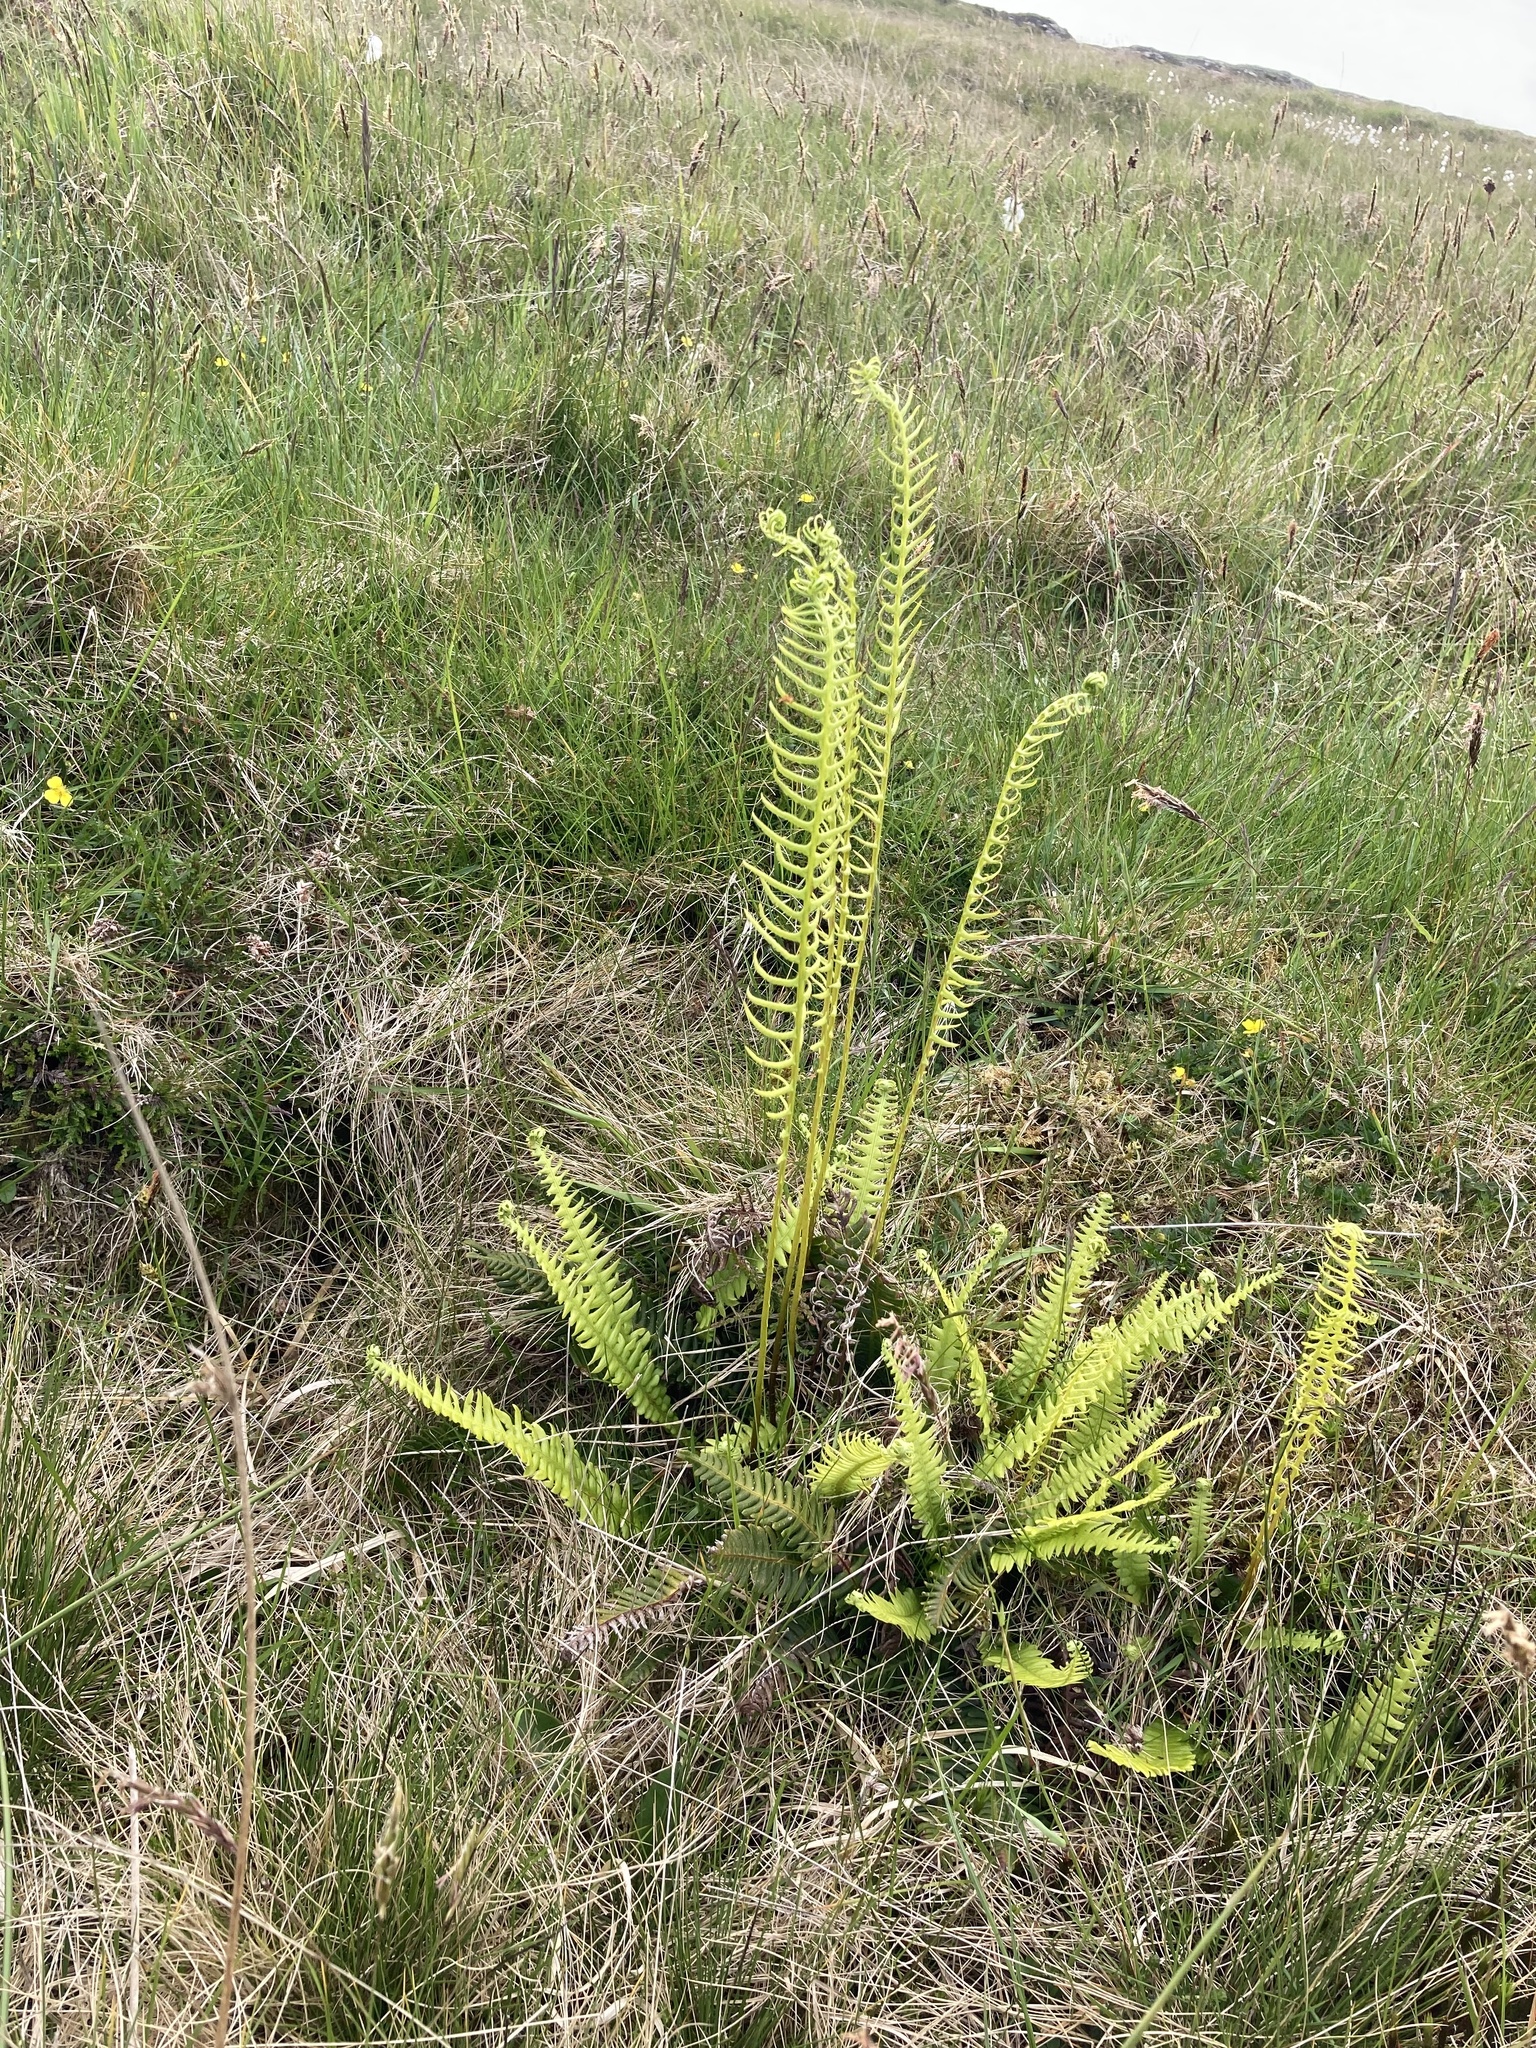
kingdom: Plantae
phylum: Tracheophyta
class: Polypodiopsida
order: Polypodiales
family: Blechnaceae
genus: Struthiopteris
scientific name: Struthiopteris spicant
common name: Deer fern
